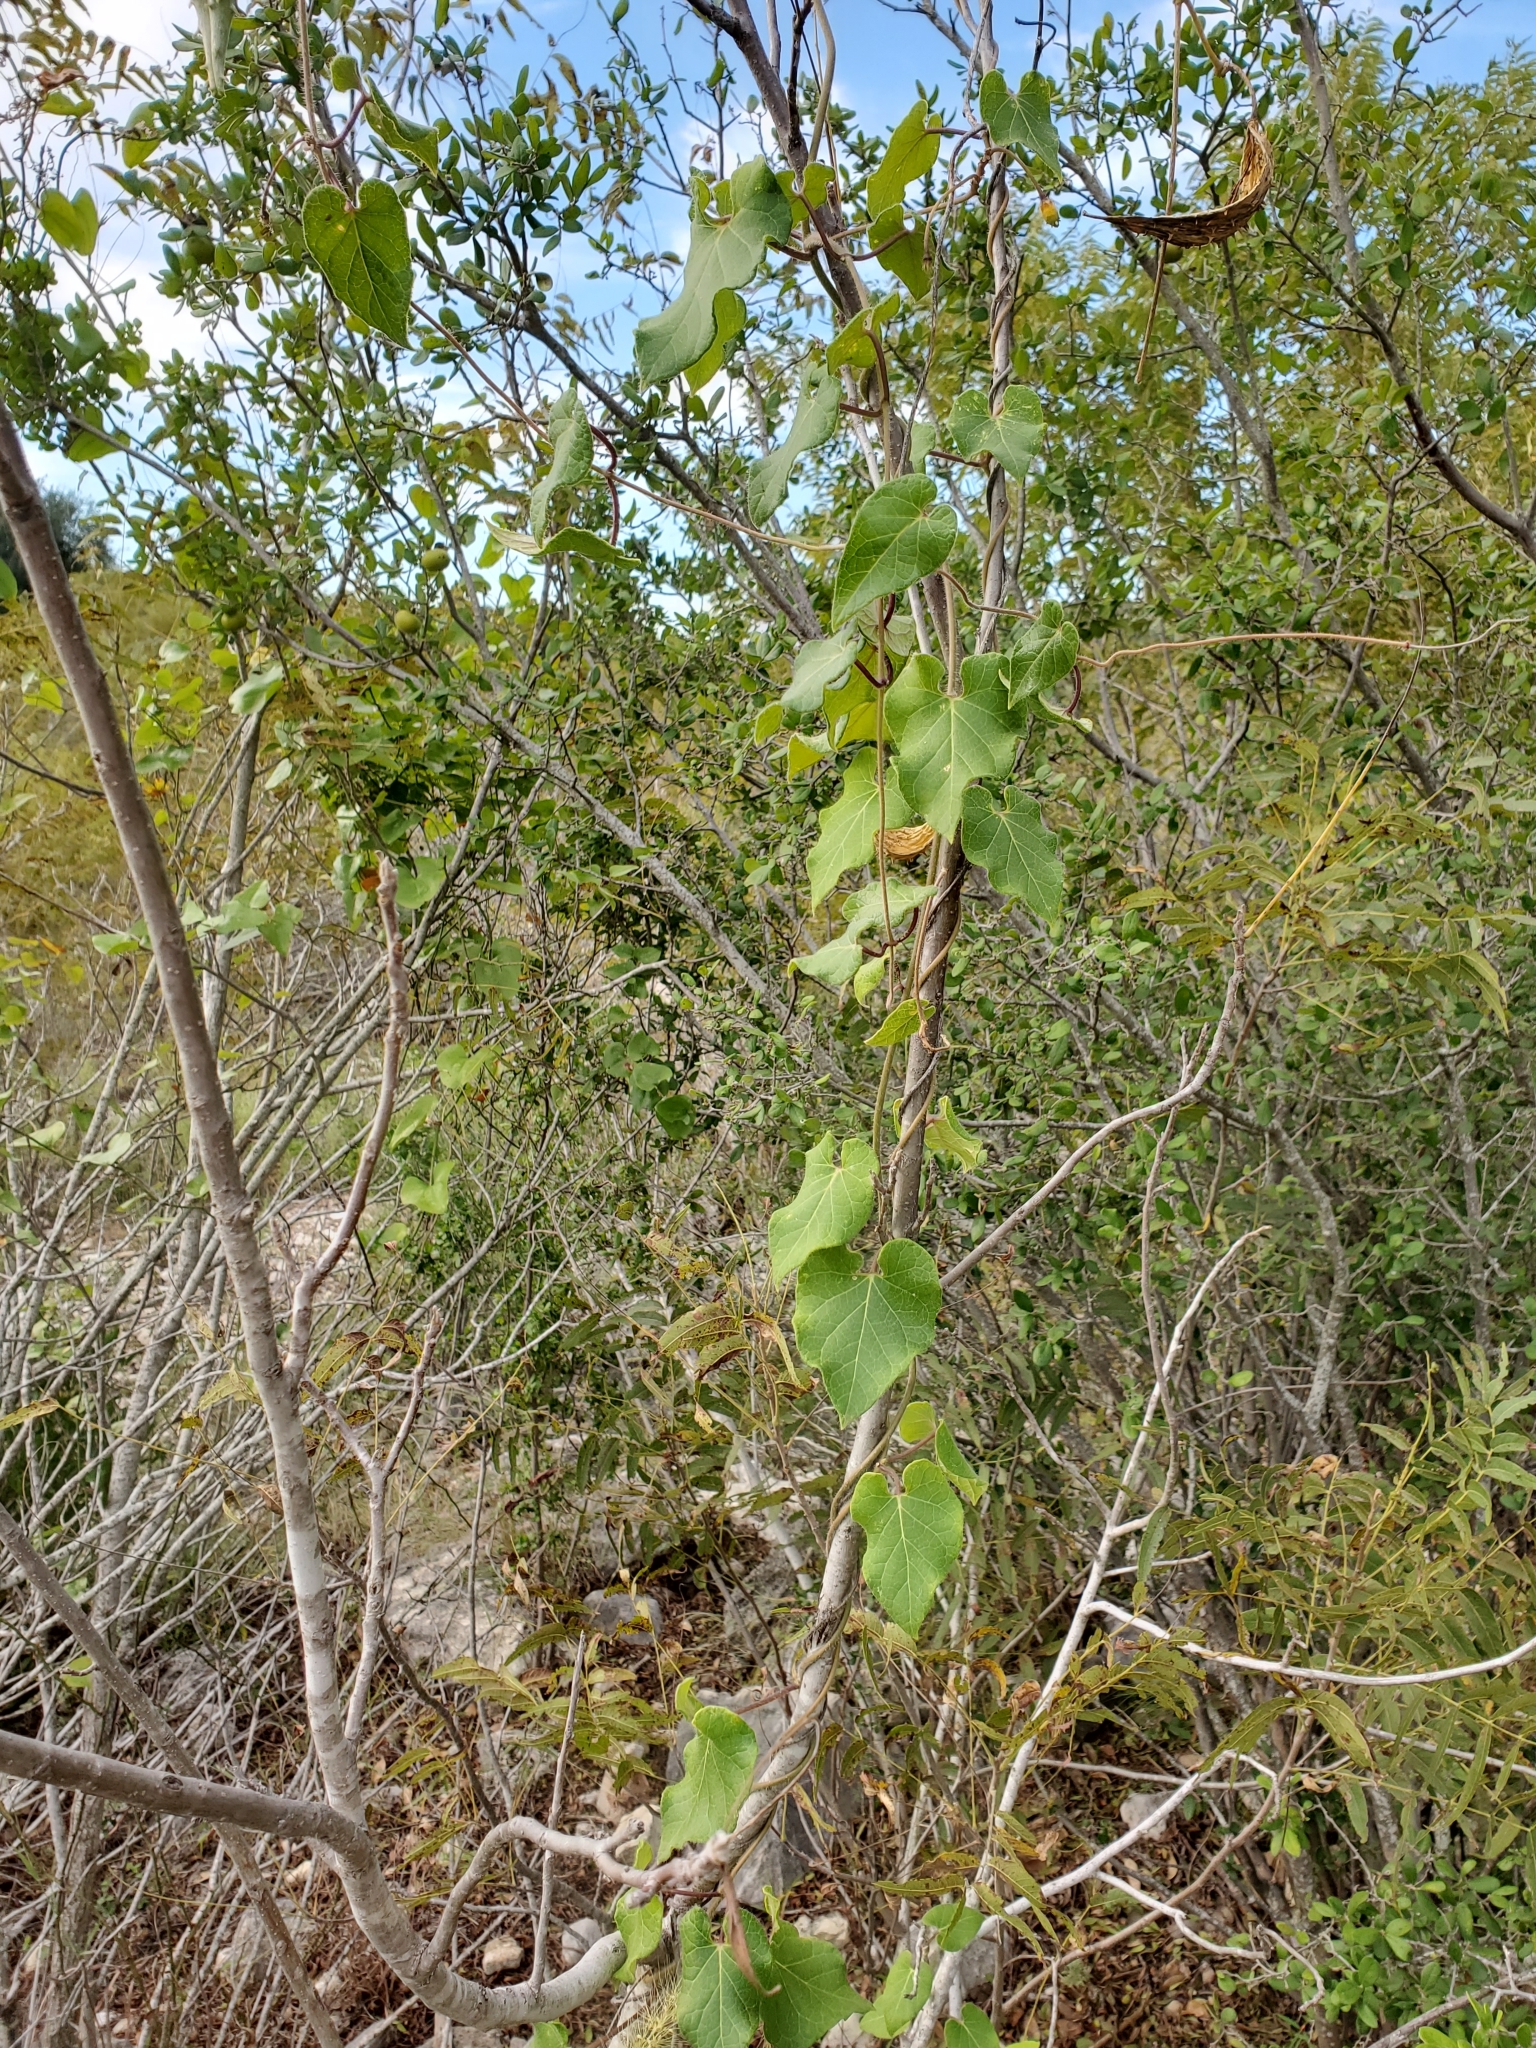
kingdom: Plantae
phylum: Tracheophyta
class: Magnoliopsida
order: Gentianales
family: Apocynaceae
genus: Dictyanthus
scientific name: Dictyanthus reticulatus
